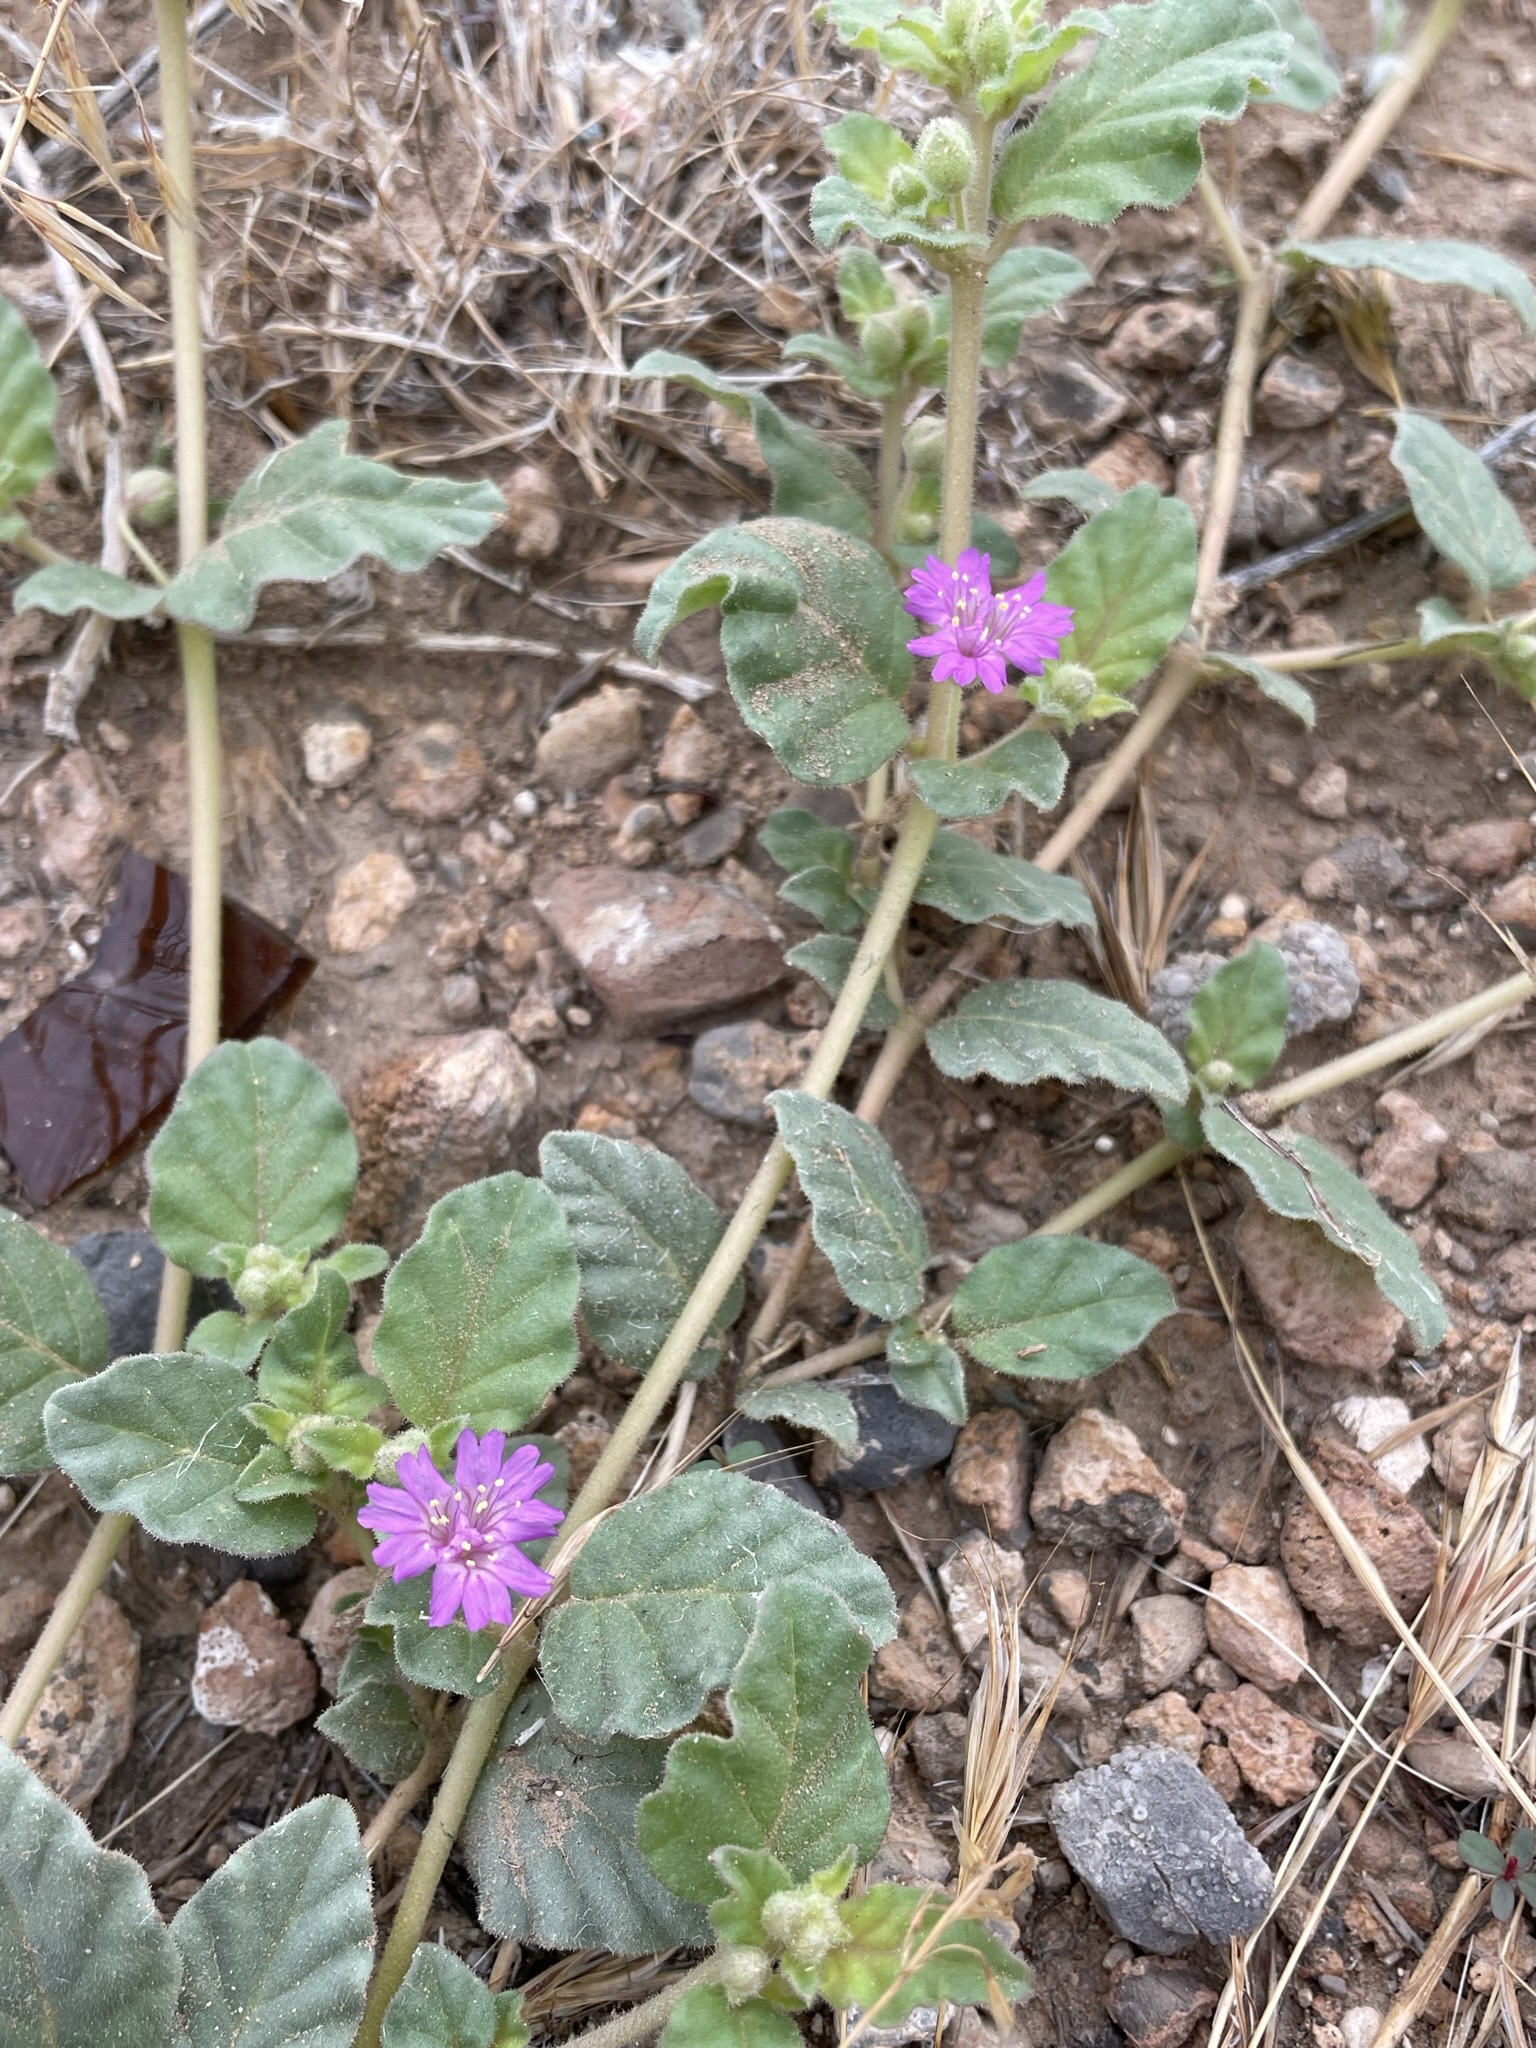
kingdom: Plantae
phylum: Tracheophyta
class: Magnoliopsida
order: Caryophyllales
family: Nyctaginaceae
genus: Allionia
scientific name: Allionia incarnata
